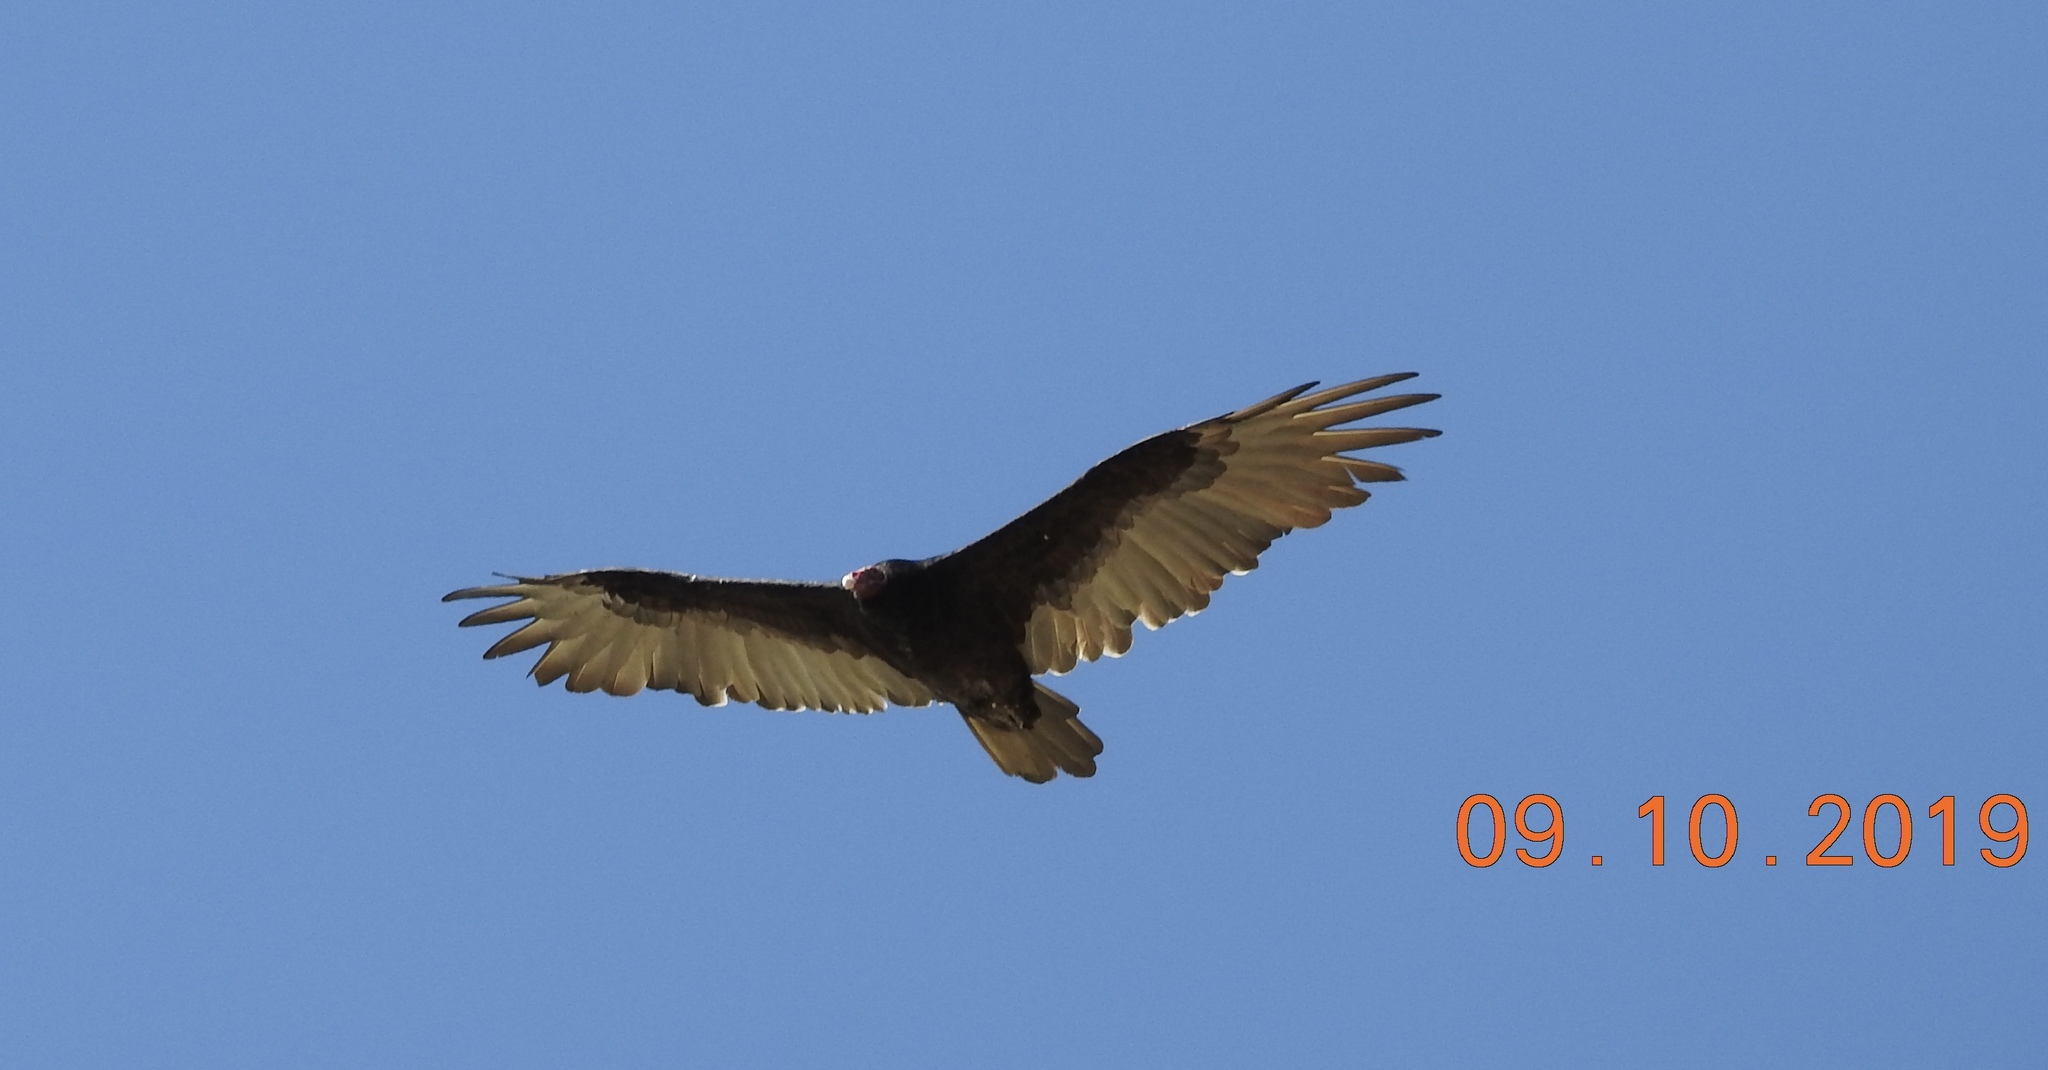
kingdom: Animalia
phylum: Chordata
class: Aves
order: Accipitriformes
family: Cathartidae
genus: Cathartes
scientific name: Cathartes aura
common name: Turkey vulture
